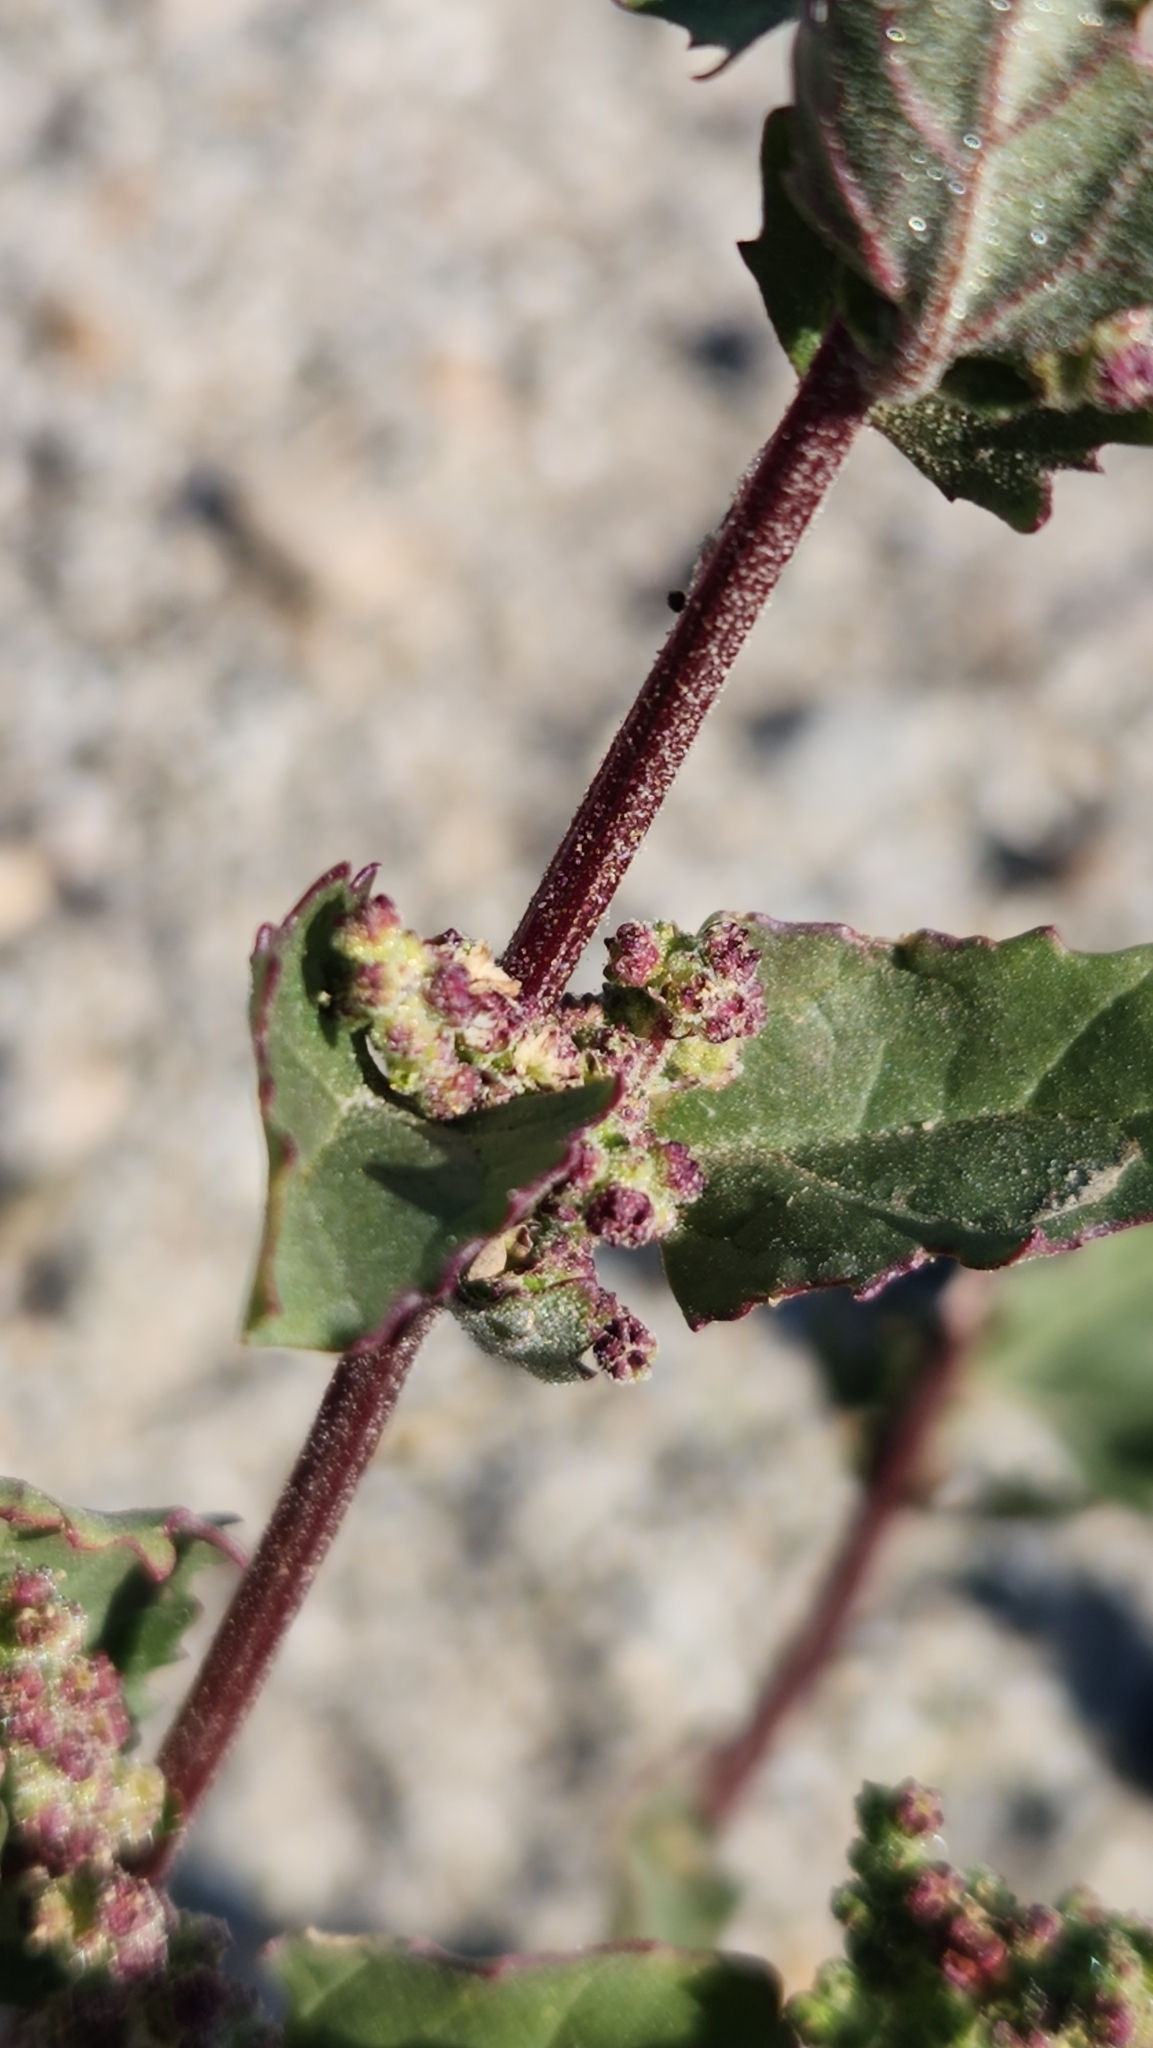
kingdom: Plantae
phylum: Tracheophyta
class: Magnoliopsida
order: Caryophyllales
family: Amaranthaceae
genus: Chenopodiastrum
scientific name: Chenopodiastrum murale
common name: Sowbane
